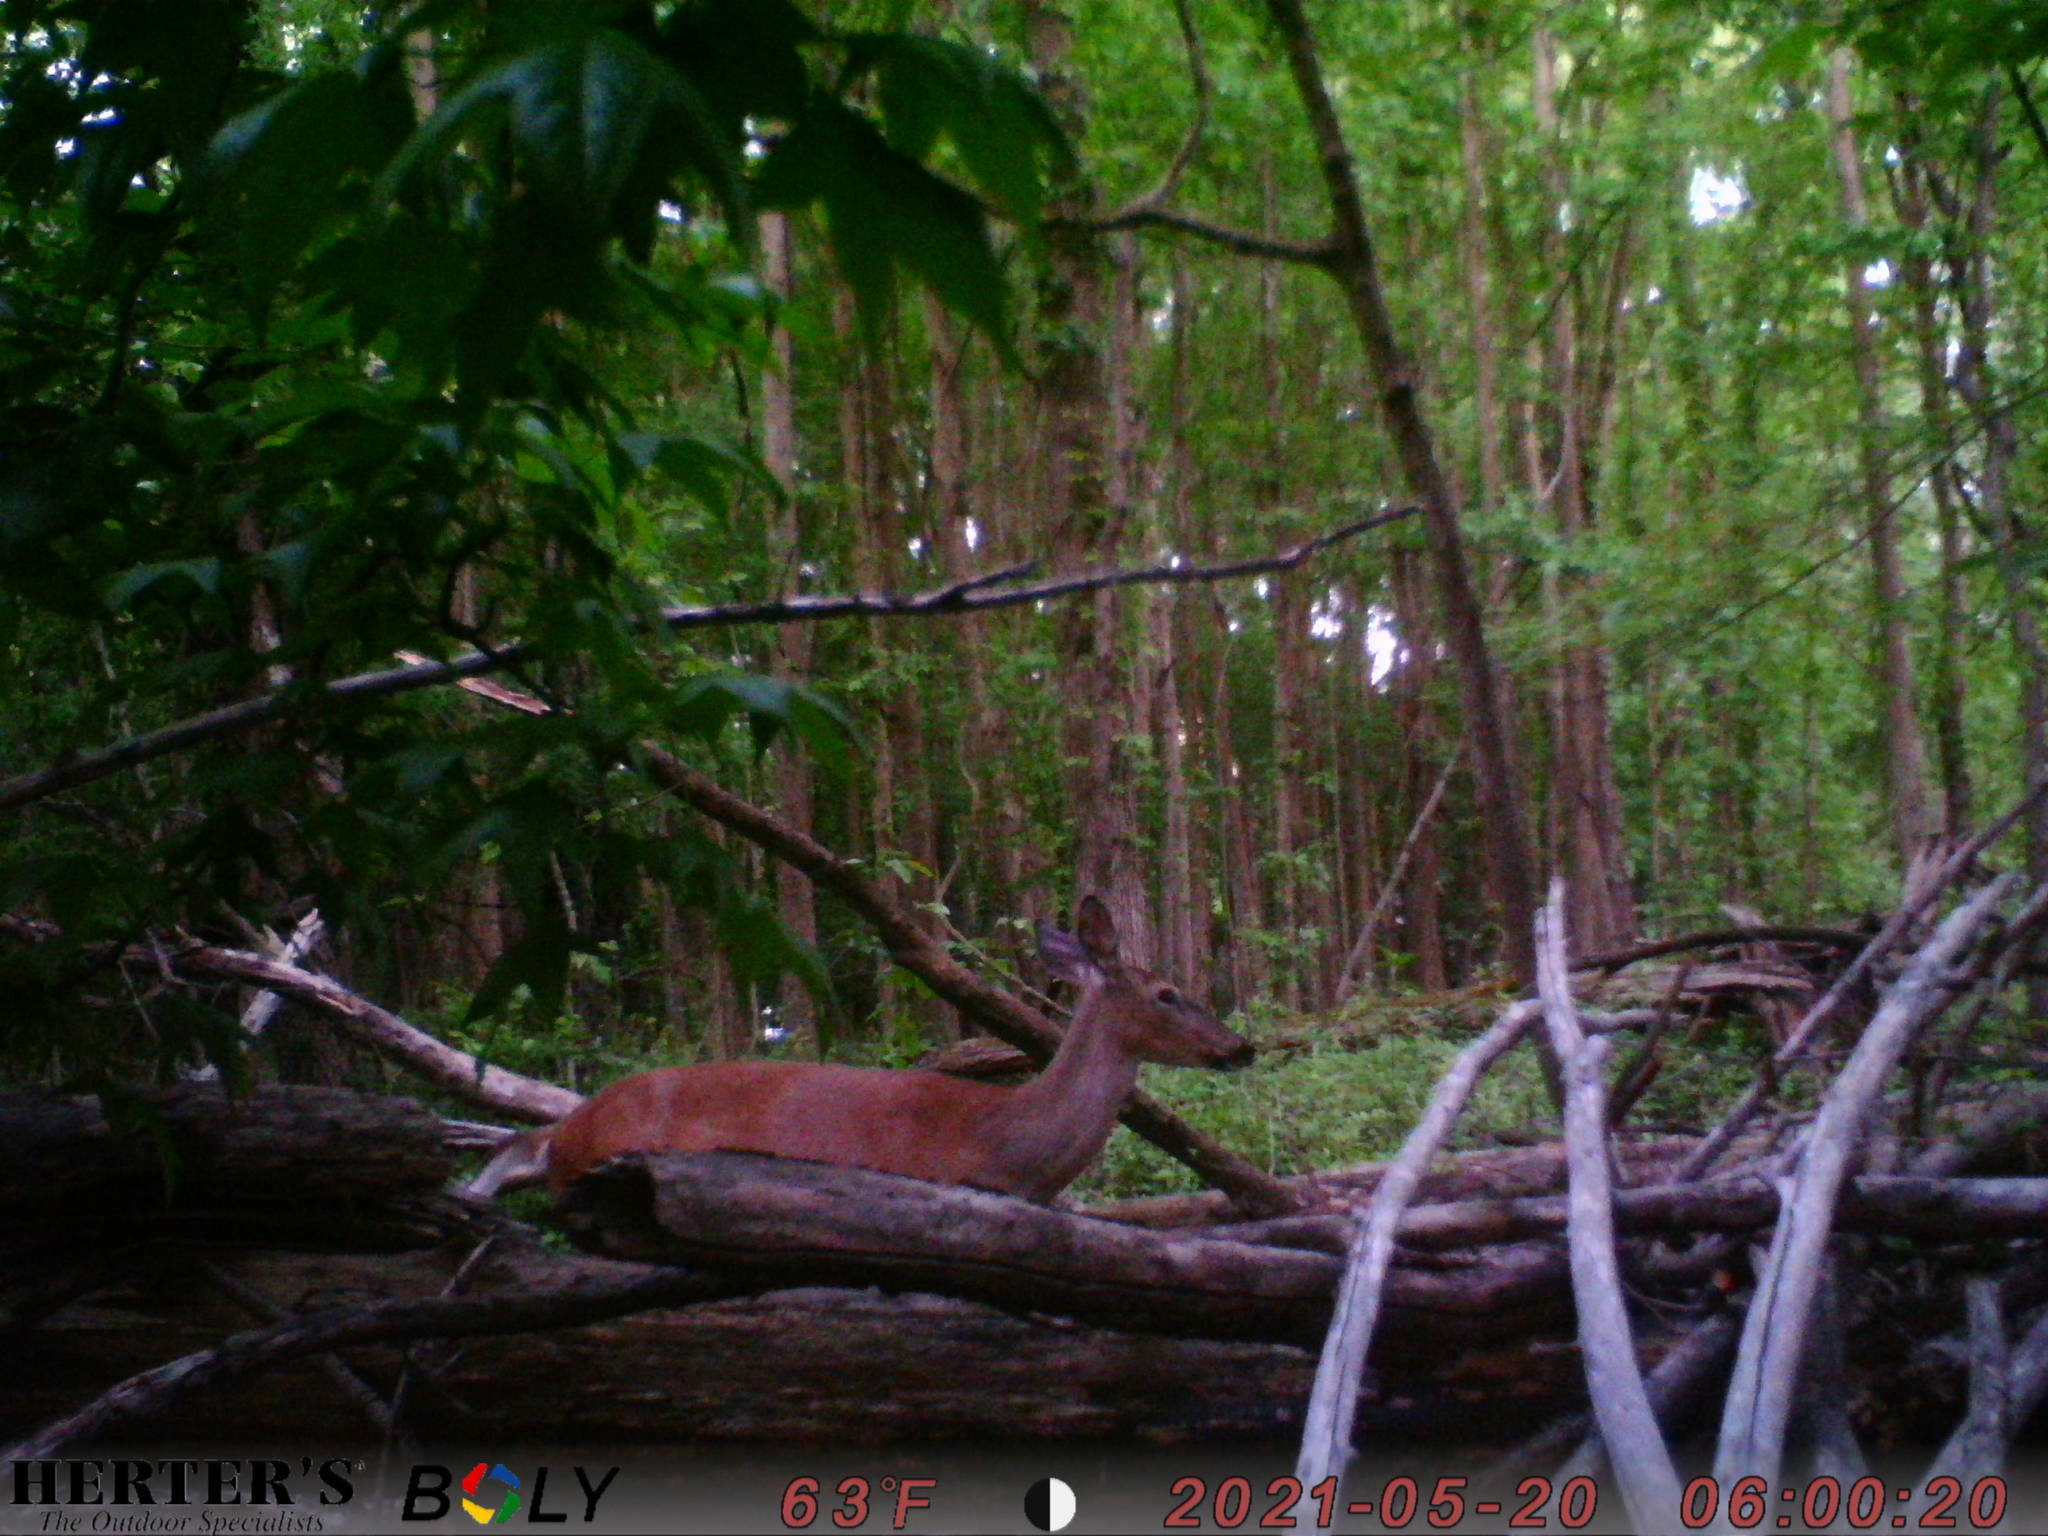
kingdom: Animalia
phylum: Chordata
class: Mammalia
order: Artiodactyla
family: Cervidae
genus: Odocoileus
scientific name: Odocoileus virginianus
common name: White-tailed deer
